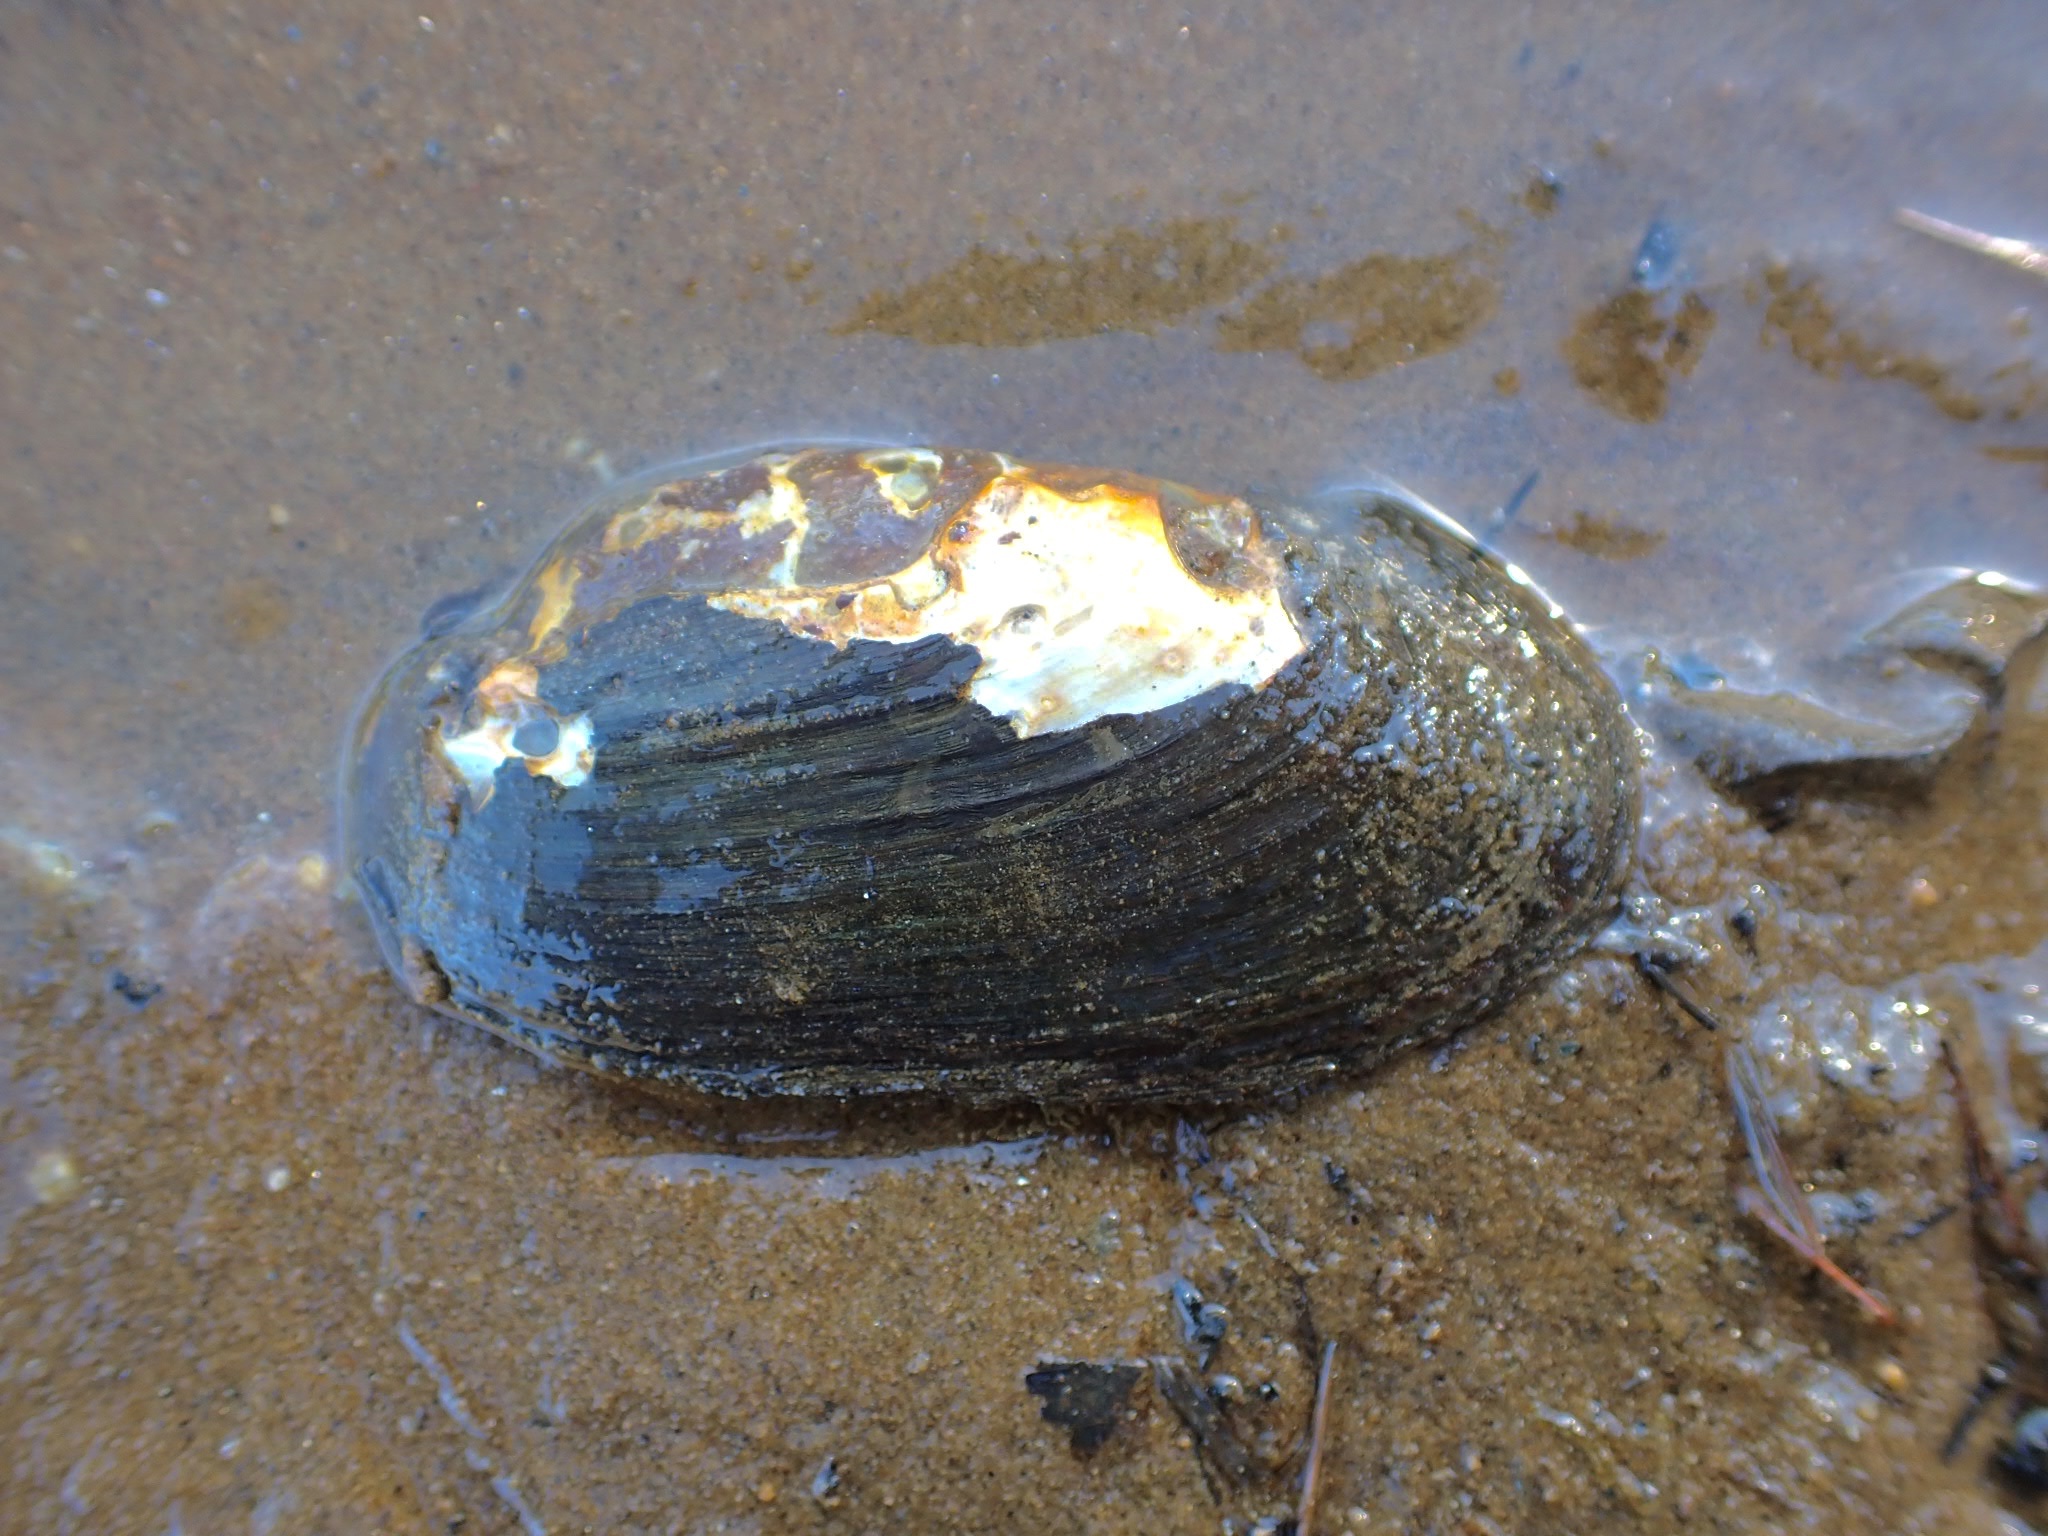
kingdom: Animalia
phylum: Mollusca
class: Bivalvia
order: Unionida
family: Unionidae
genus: Elliptio
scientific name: Elliptio complanata
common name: Eastern elliptio
